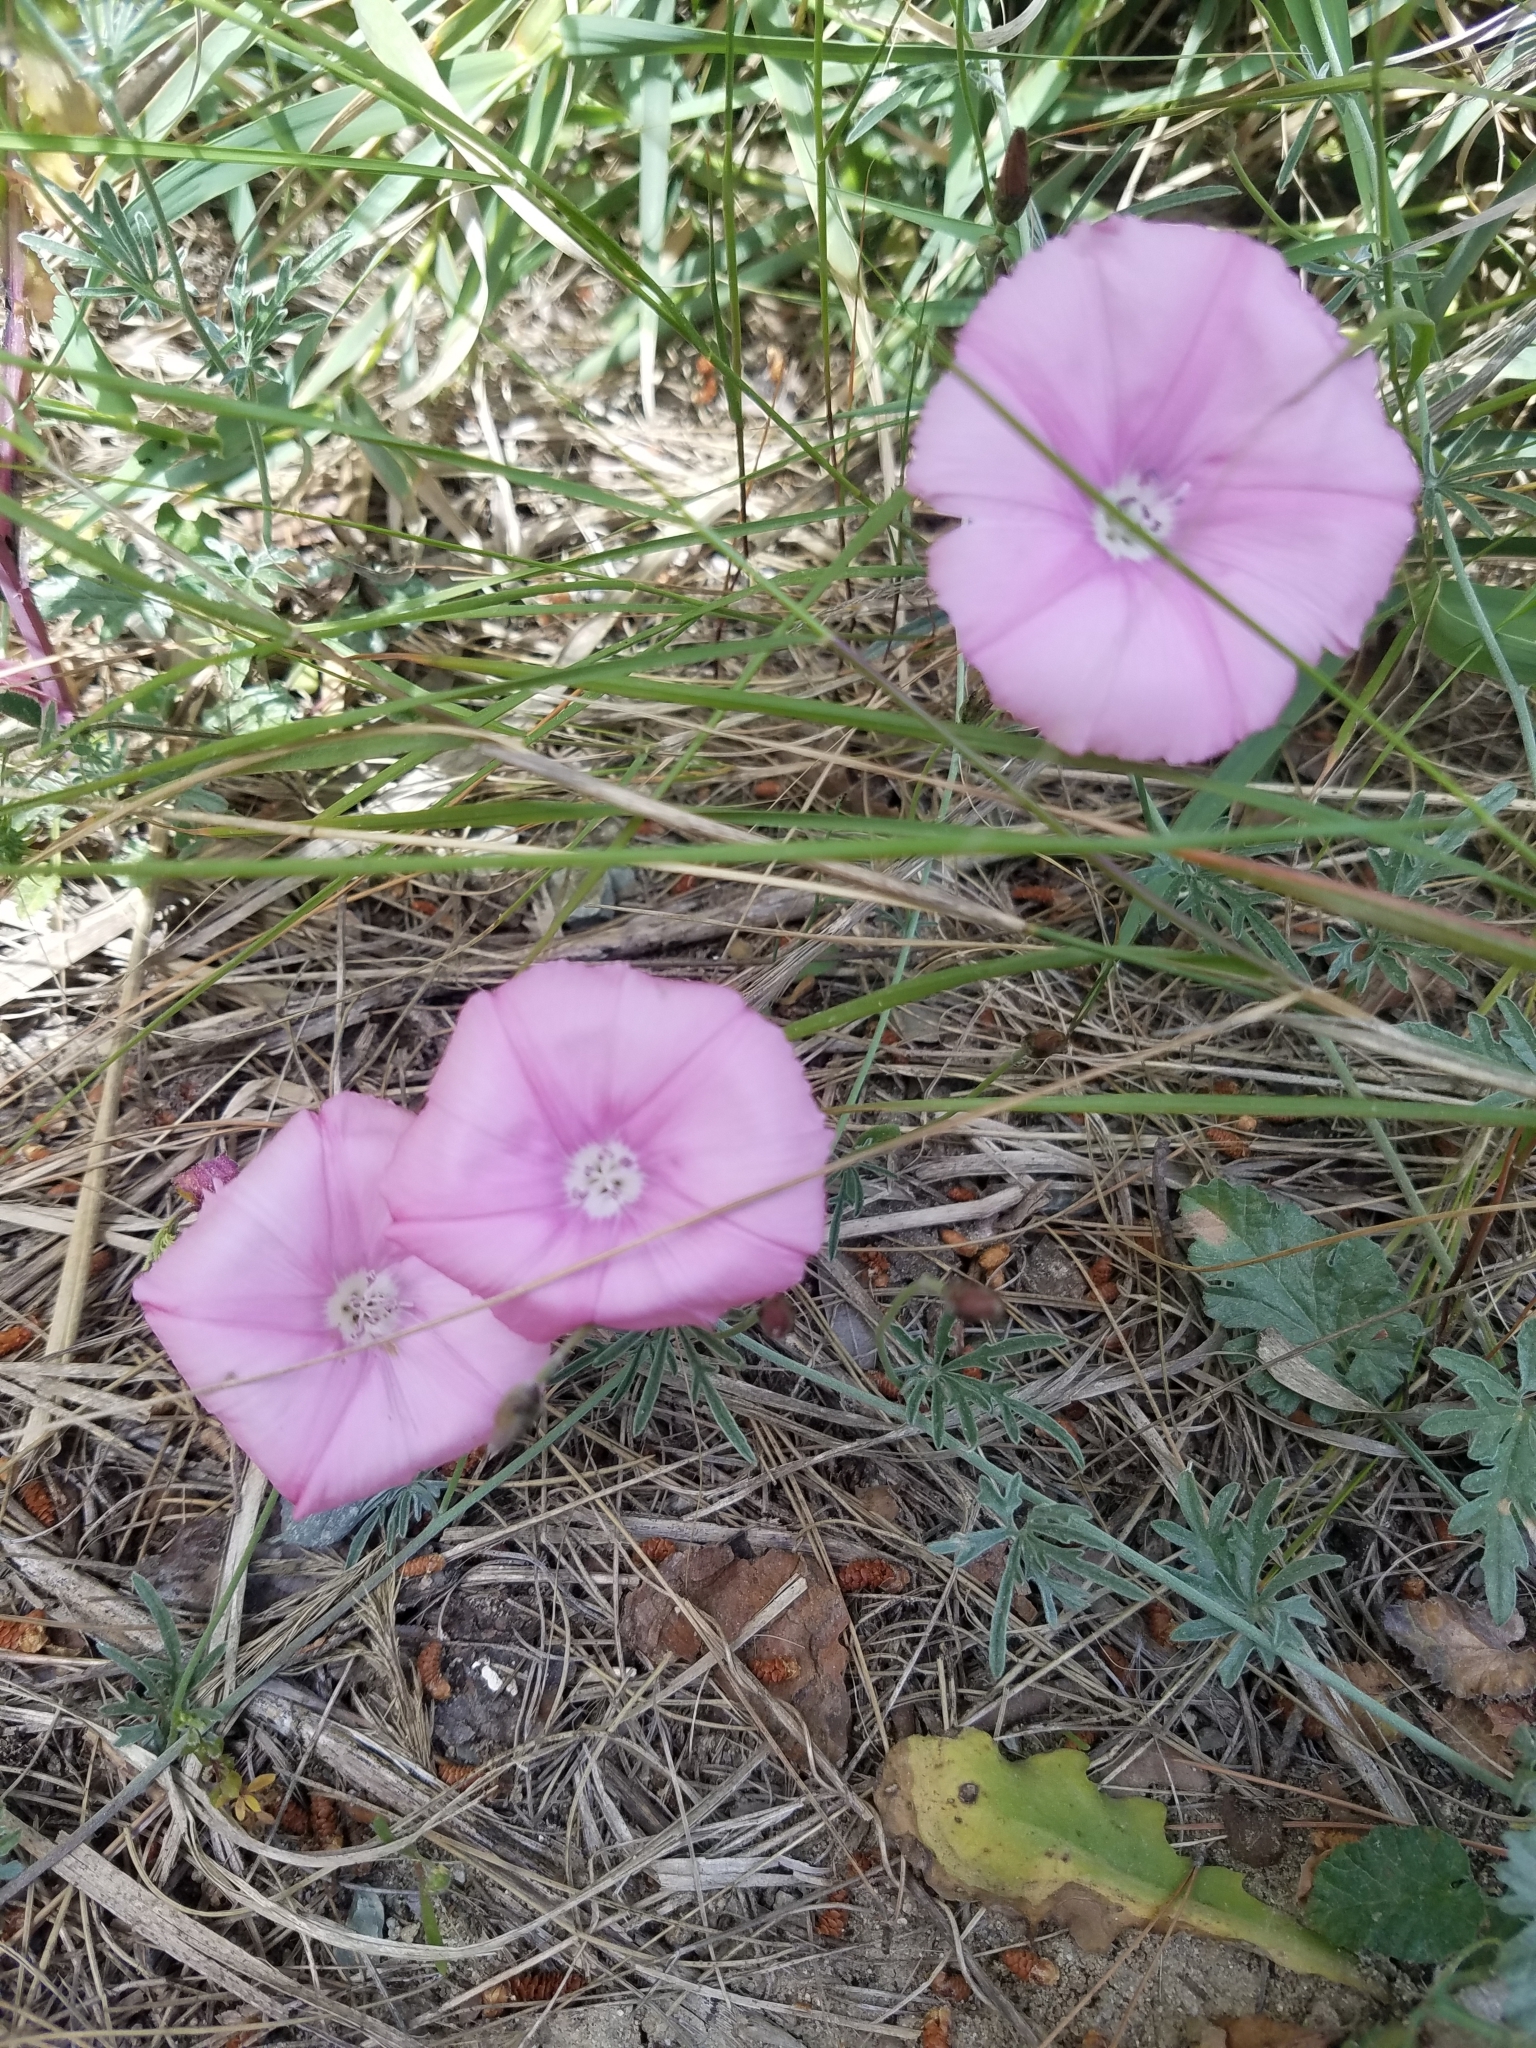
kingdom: Plantae
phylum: Tracheophyta
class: Magnoliopsida
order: Solanales
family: Convolvulaceae
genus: Convolvulus
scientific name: Convolvulus elegantissimus
